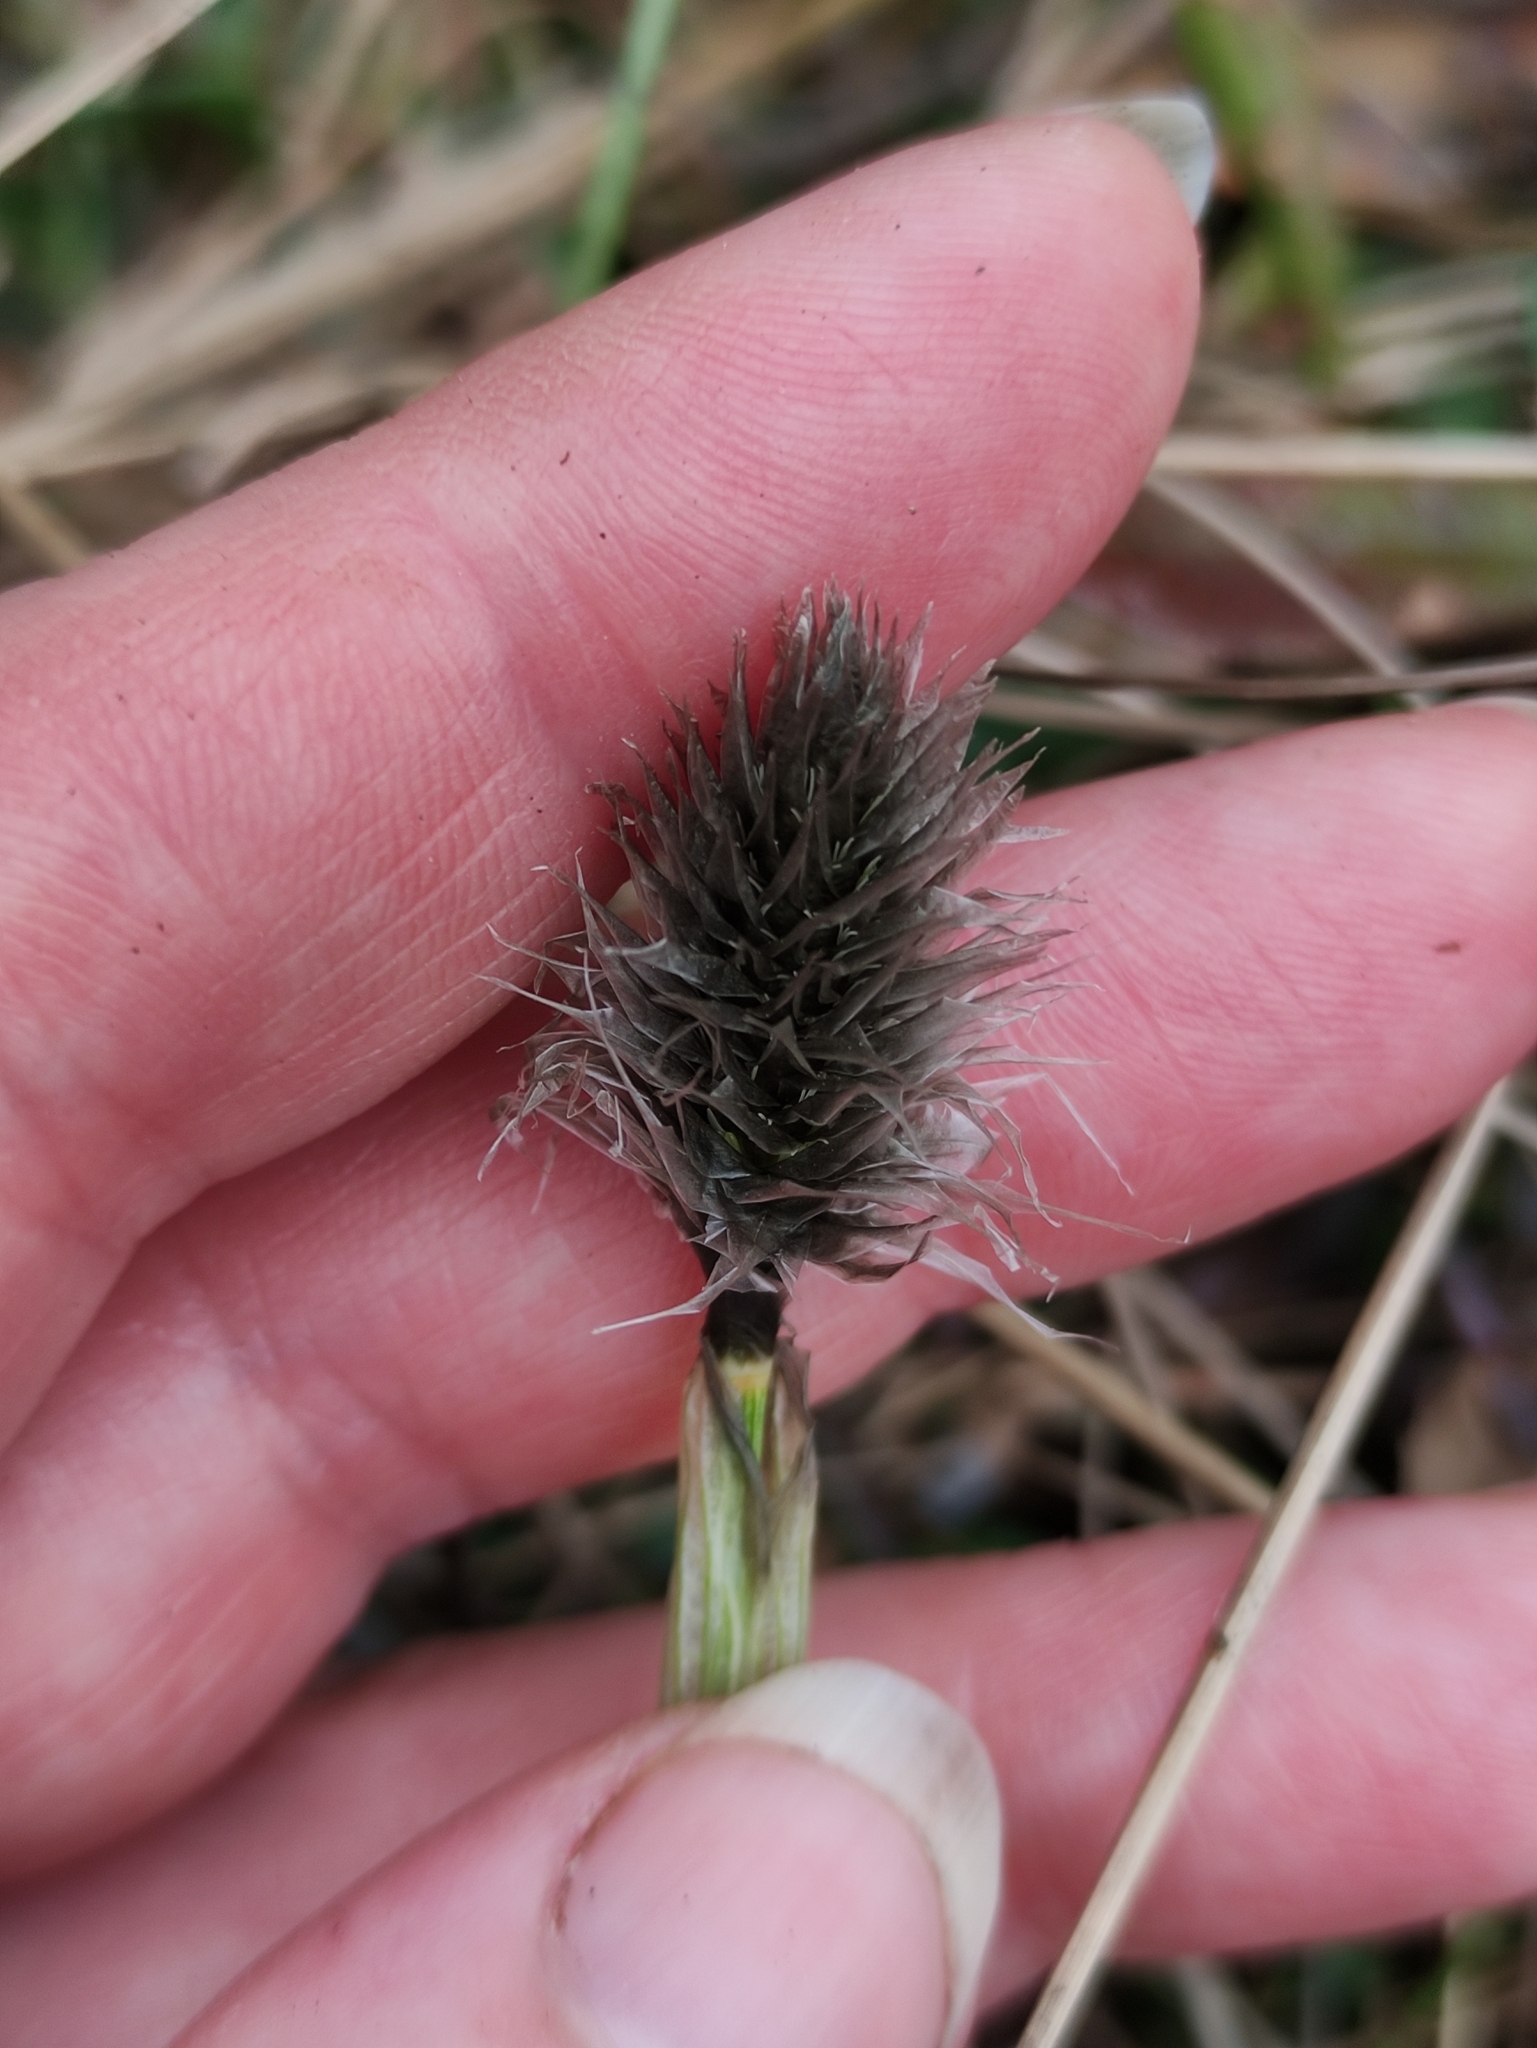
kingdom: Plantae
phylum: Tracheophyta
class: Liliopsida
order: Poales
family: Cyperaceae
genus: Eriophorum
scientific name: Eriophorum vaginatum
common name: Hare's-tail cottongrass
